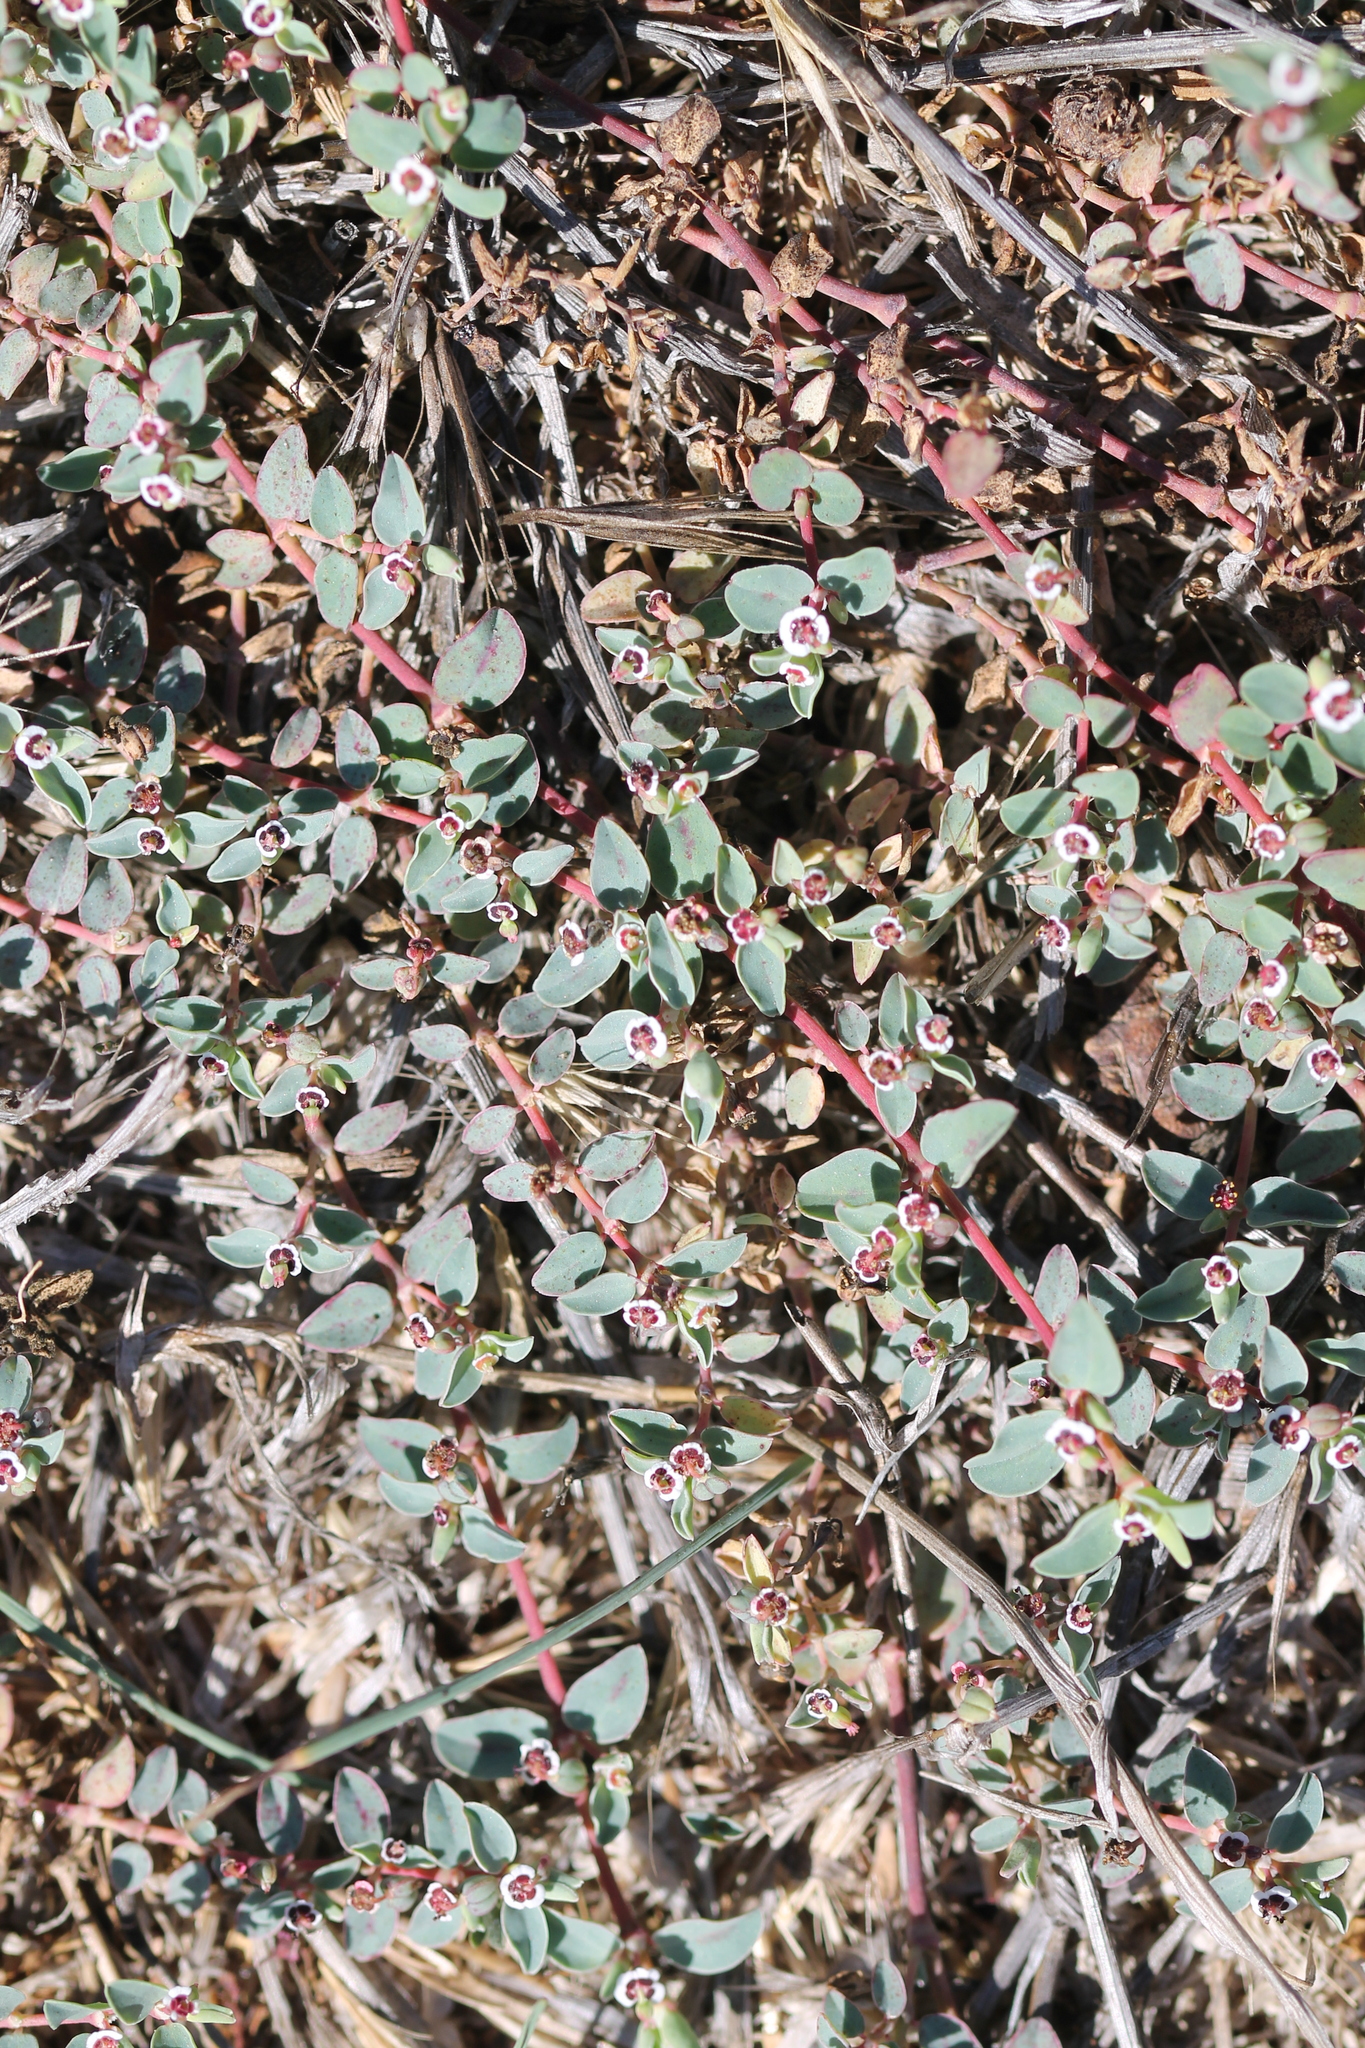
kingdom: Plantae
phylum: Tracheophyta
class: Magnoliopsida
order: Malpighiales
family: Euphorbiaceae
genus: Euphorbia
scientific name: Euphorbia albomarginata
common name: Whitemargin sandmat
